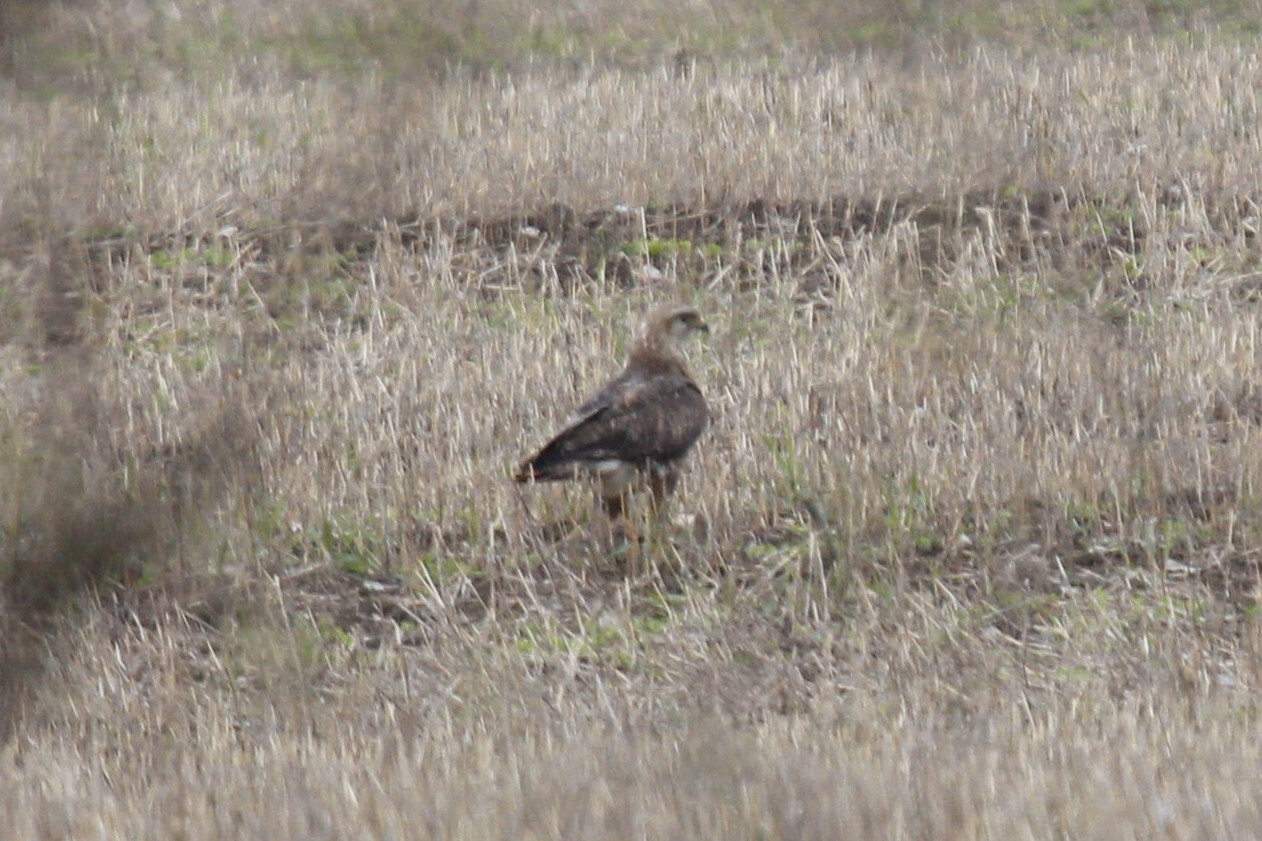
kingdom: Animalia
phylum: Chordata
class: Aves
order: Accipitriformes
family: Accipitridae
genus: Buteo
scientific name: Buteo buteo
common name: Common buzzard
